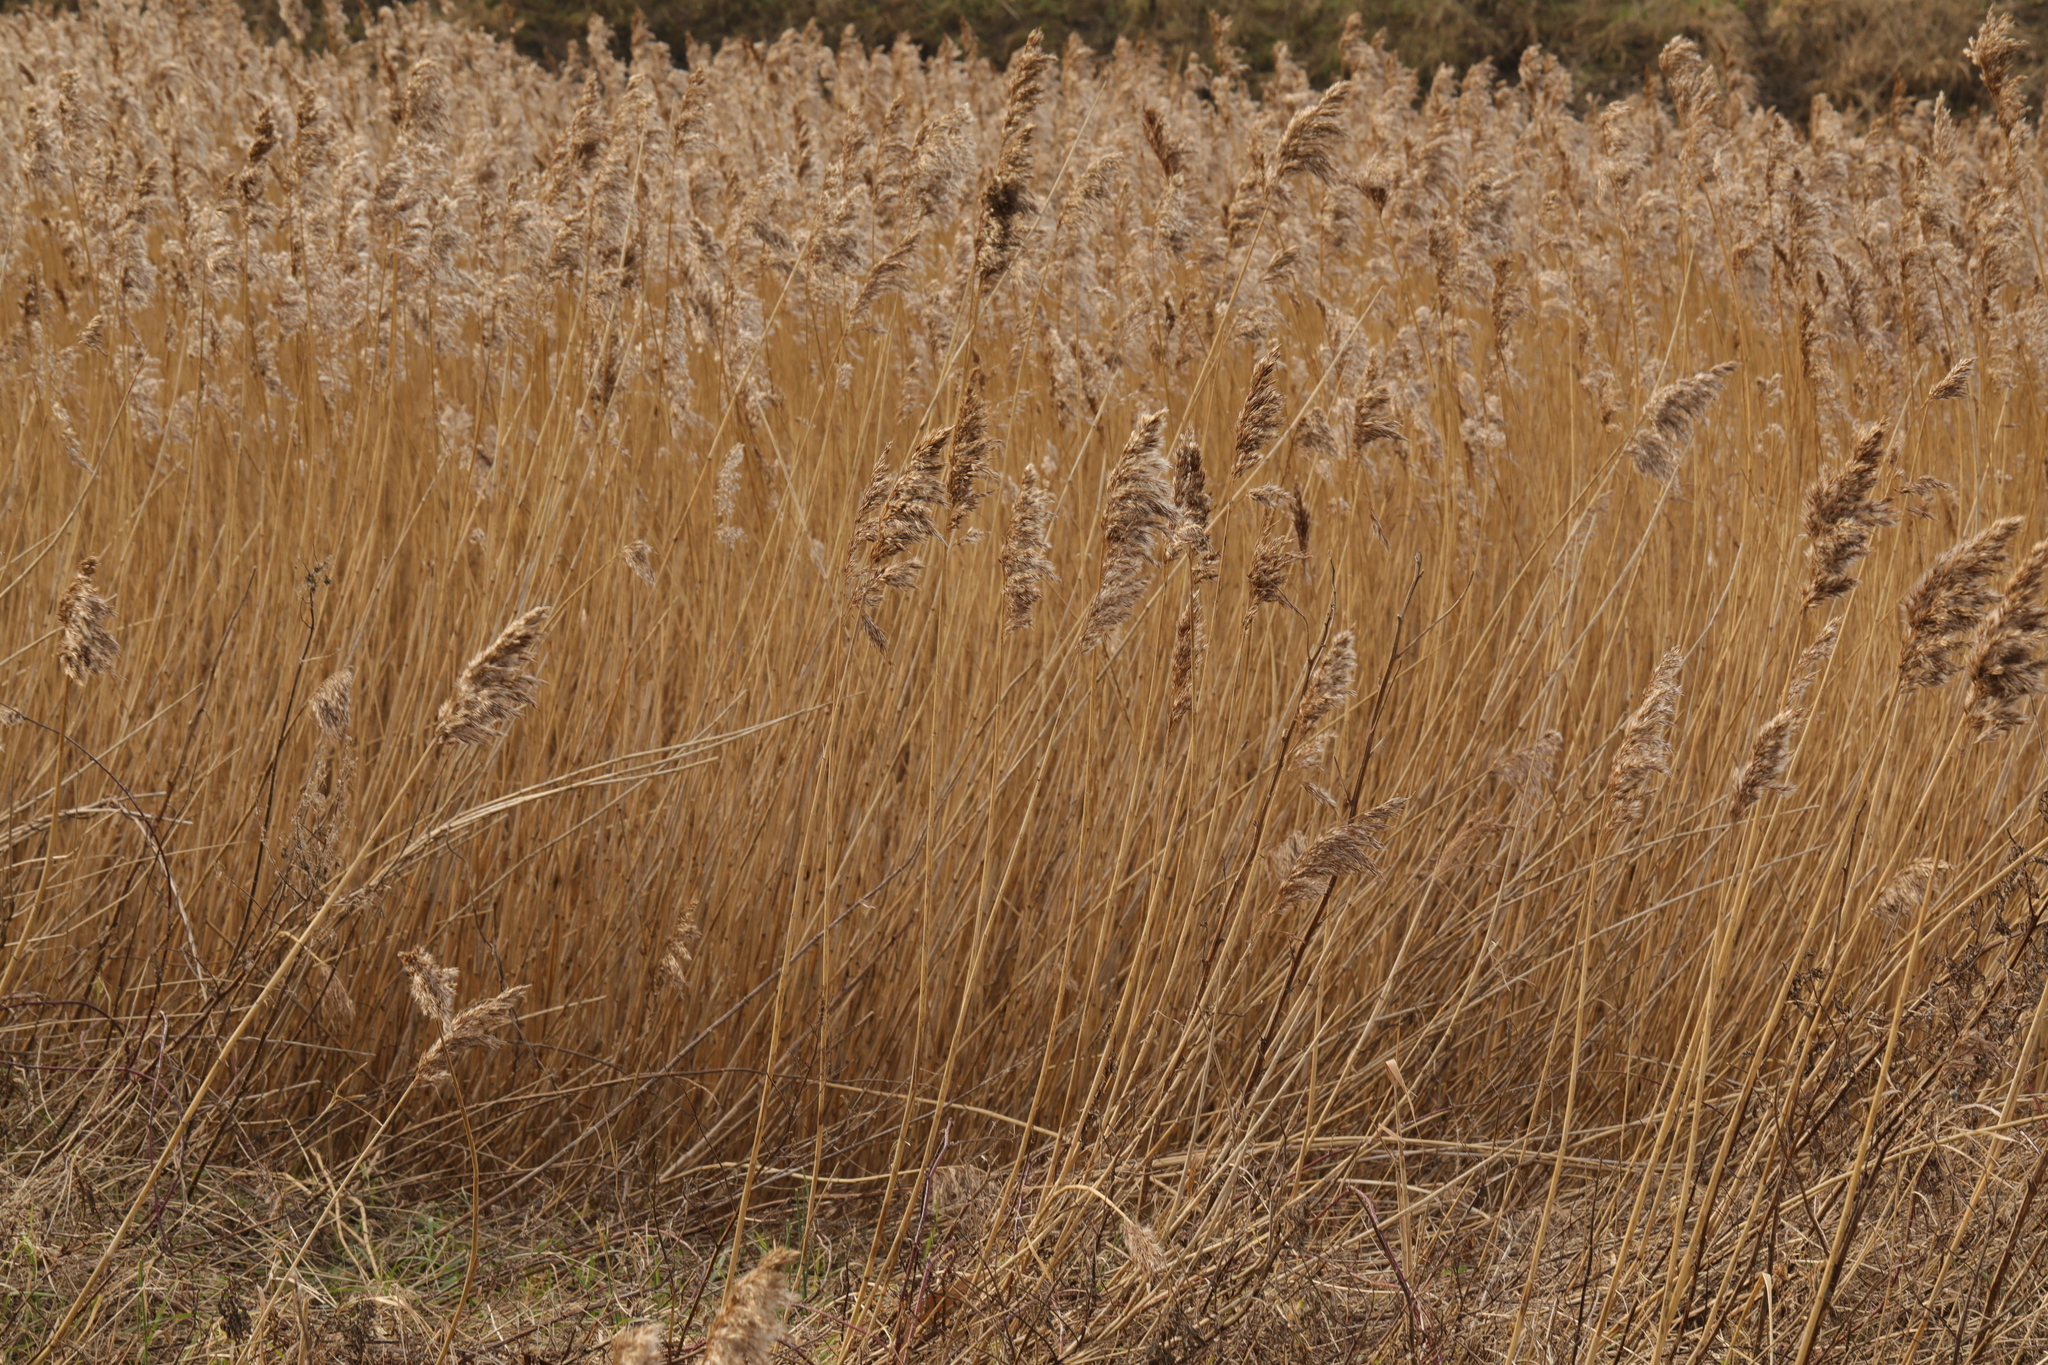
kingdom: Plantae
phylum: Tracheophyta
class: Liliopsida
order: Poales
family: Poaceae
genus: Phragmites
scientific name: Phragmites australis
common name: Common reed
